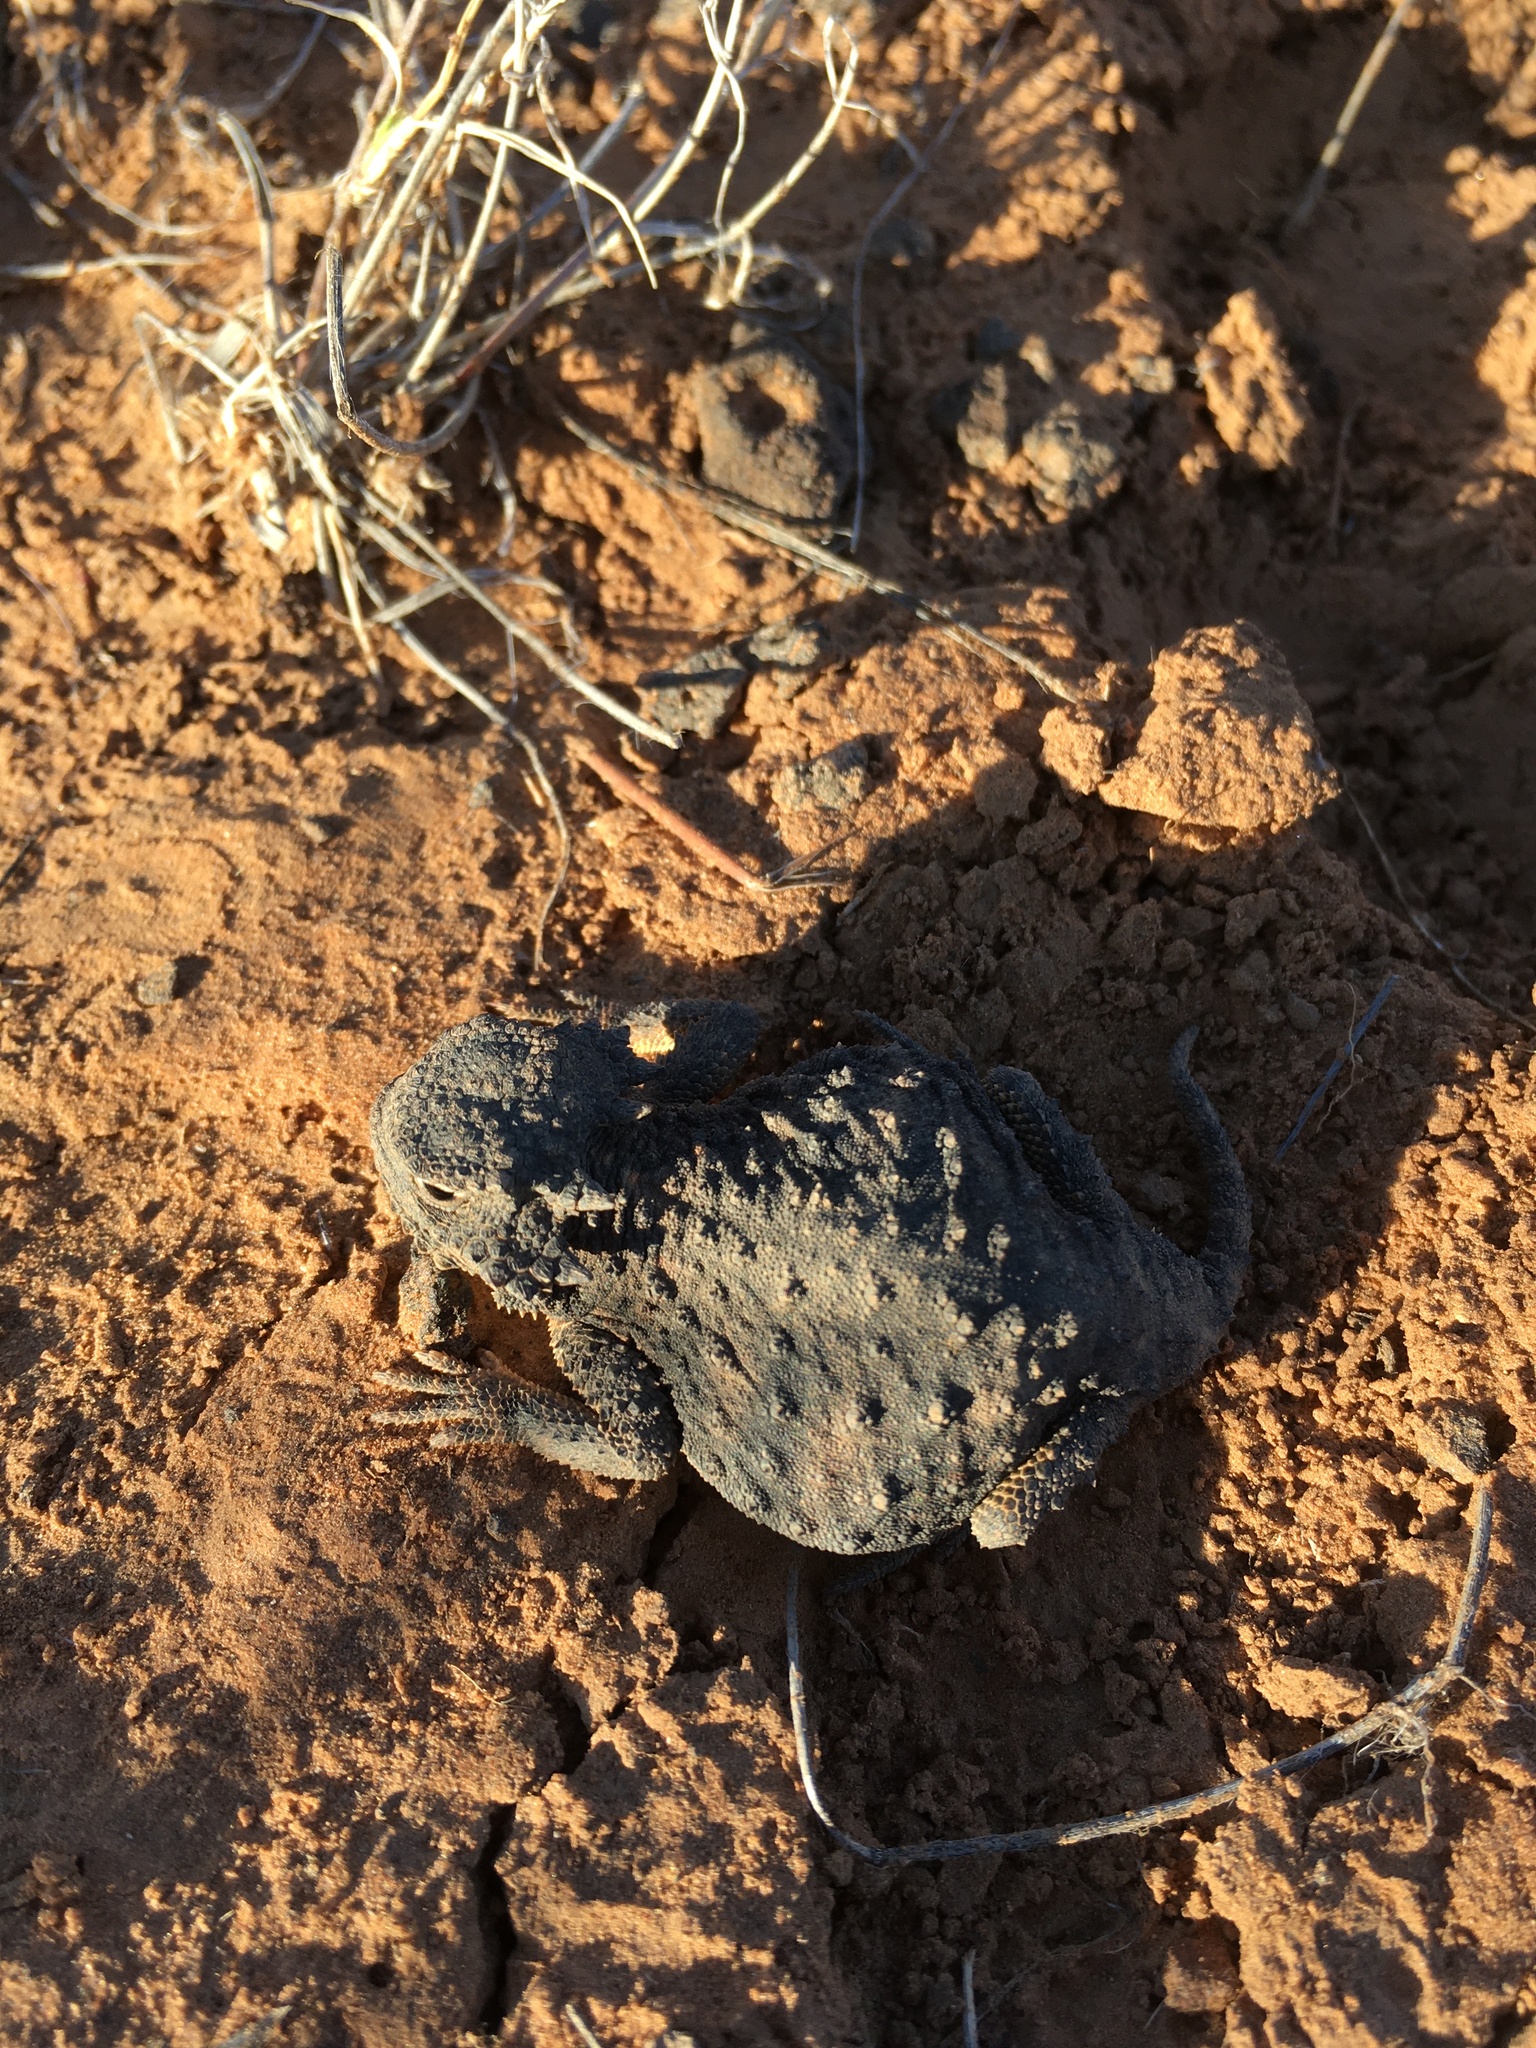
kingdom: Animalia
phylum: Chordata
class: Squamata
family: Phrynosomatidae
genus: Phrynosoma
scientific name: Phrynosoma modestum
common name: Roundtail horned lizard
